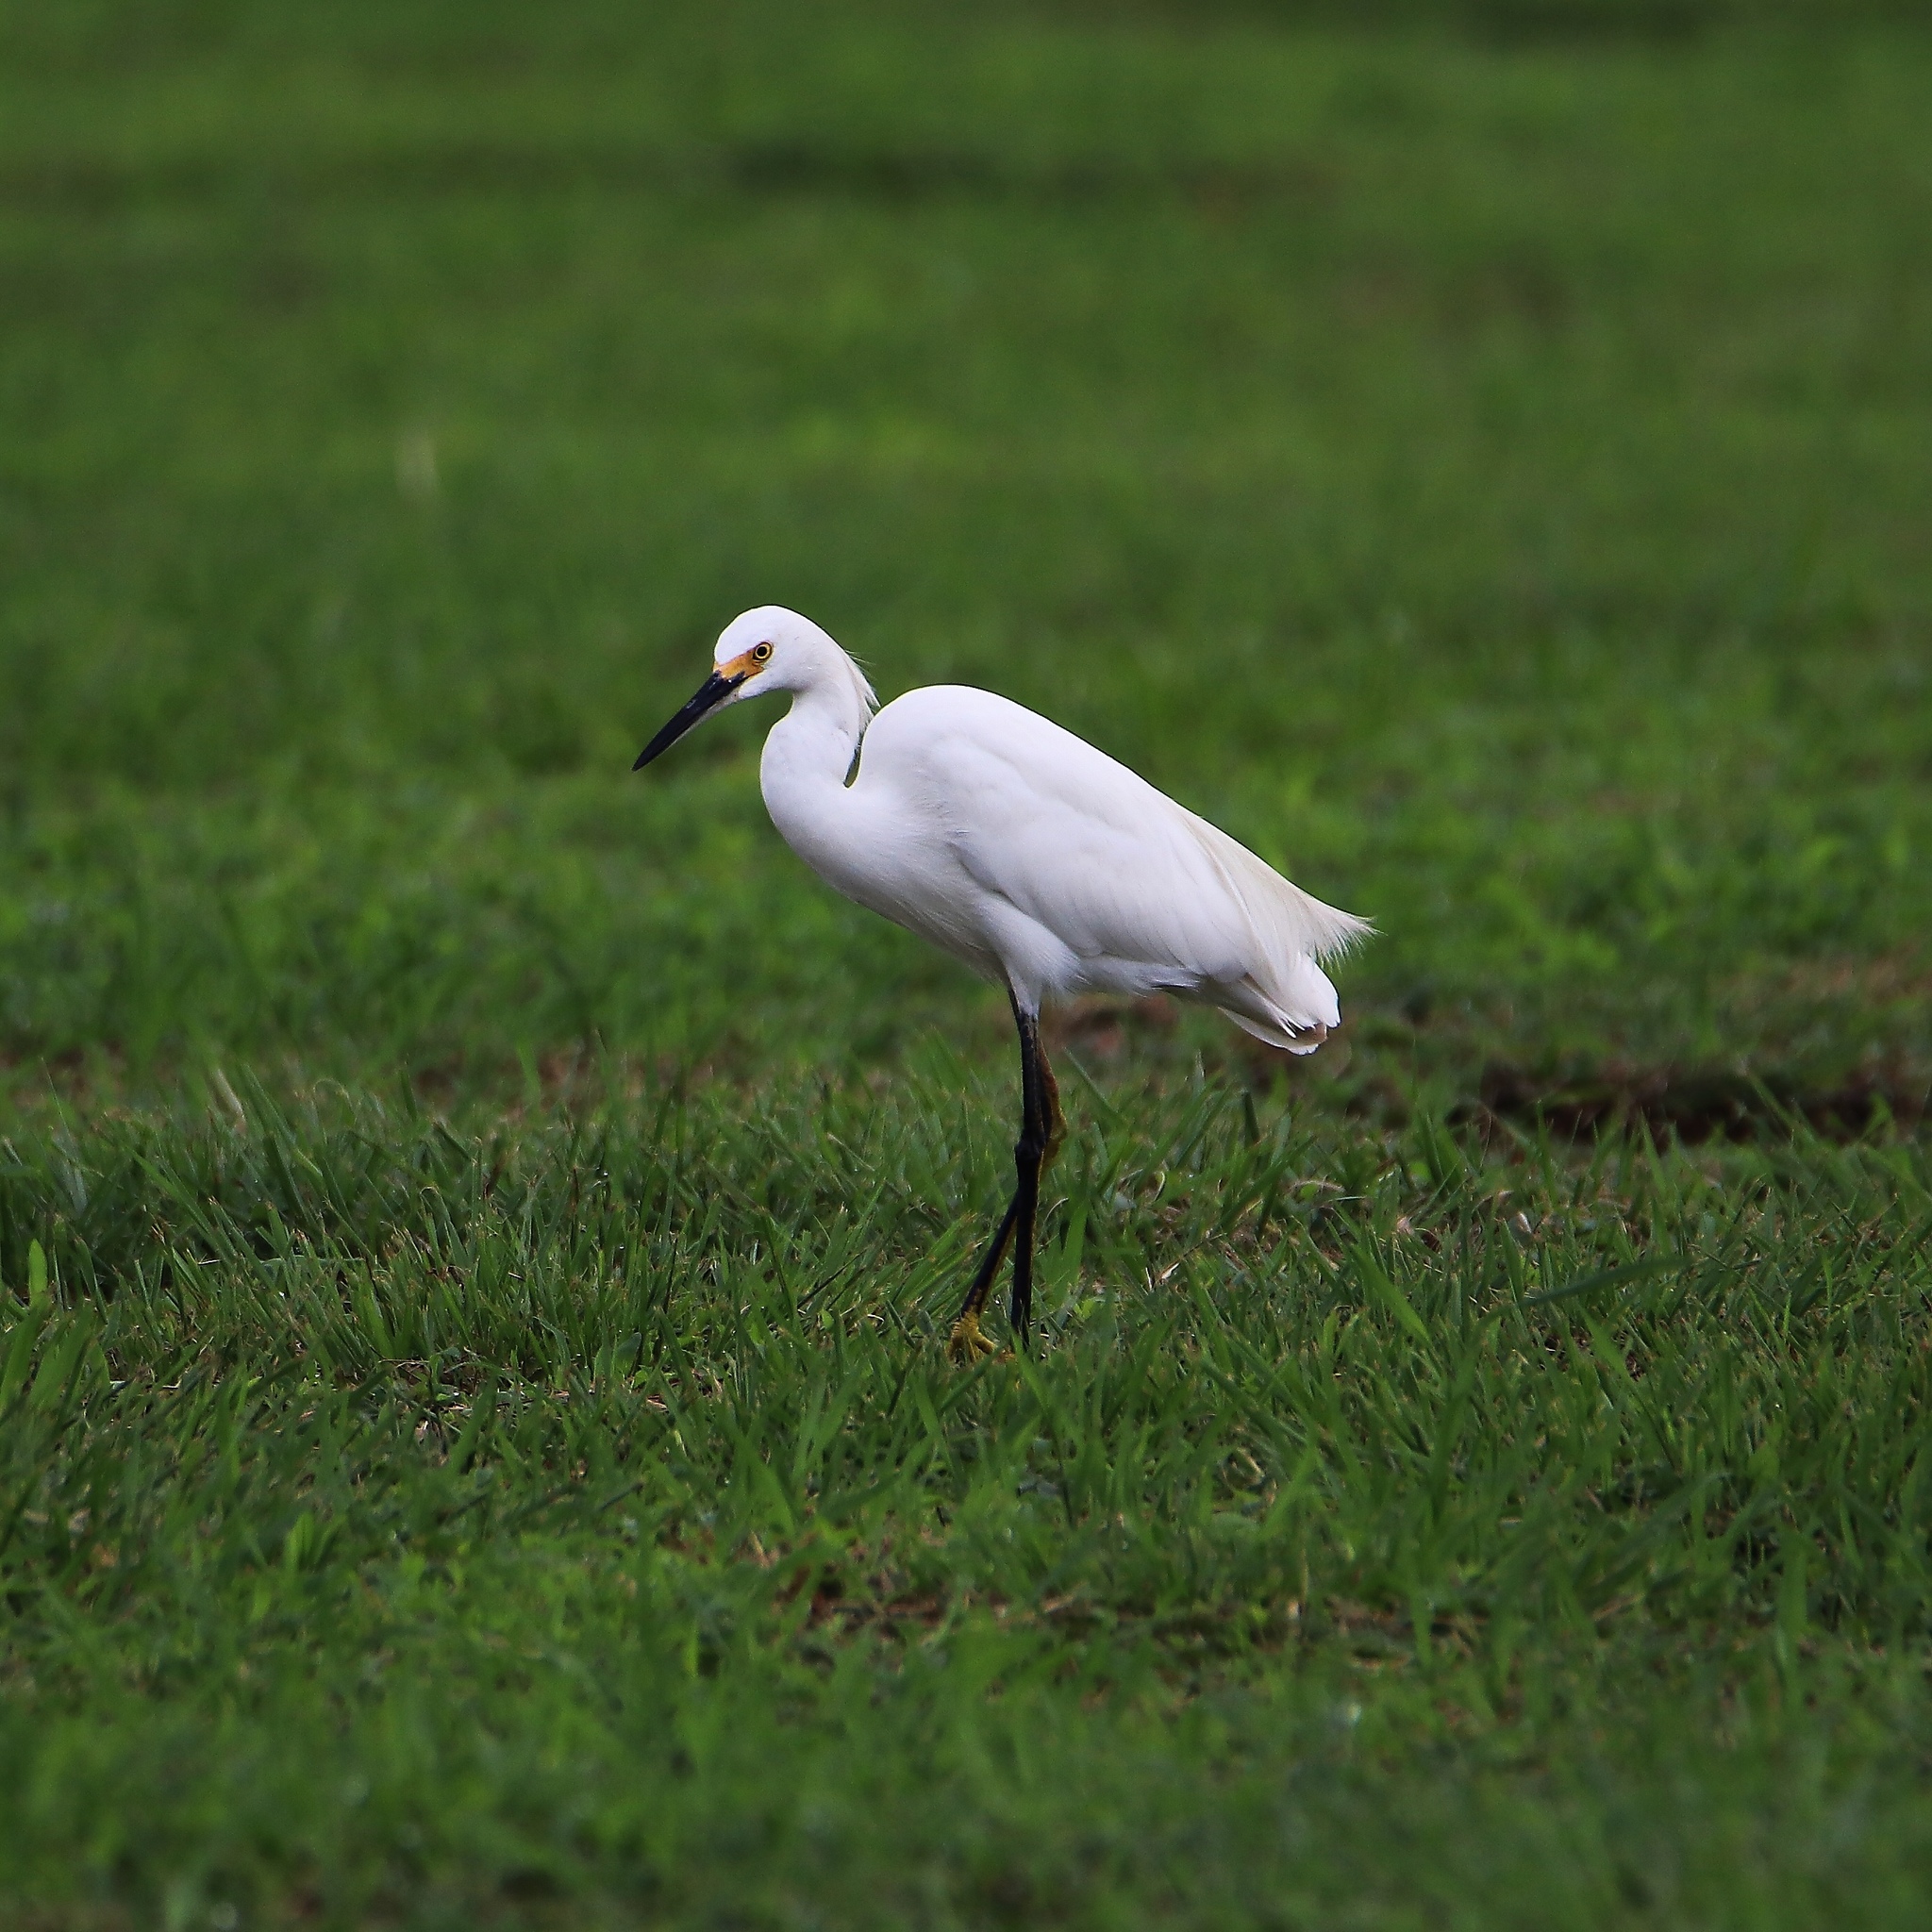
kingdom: Animalia
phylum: Chordata
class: Aves
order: Pelecaniformes
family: Ardeidae
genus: Egretta
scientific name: Egretta thula
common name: Snowy egret
